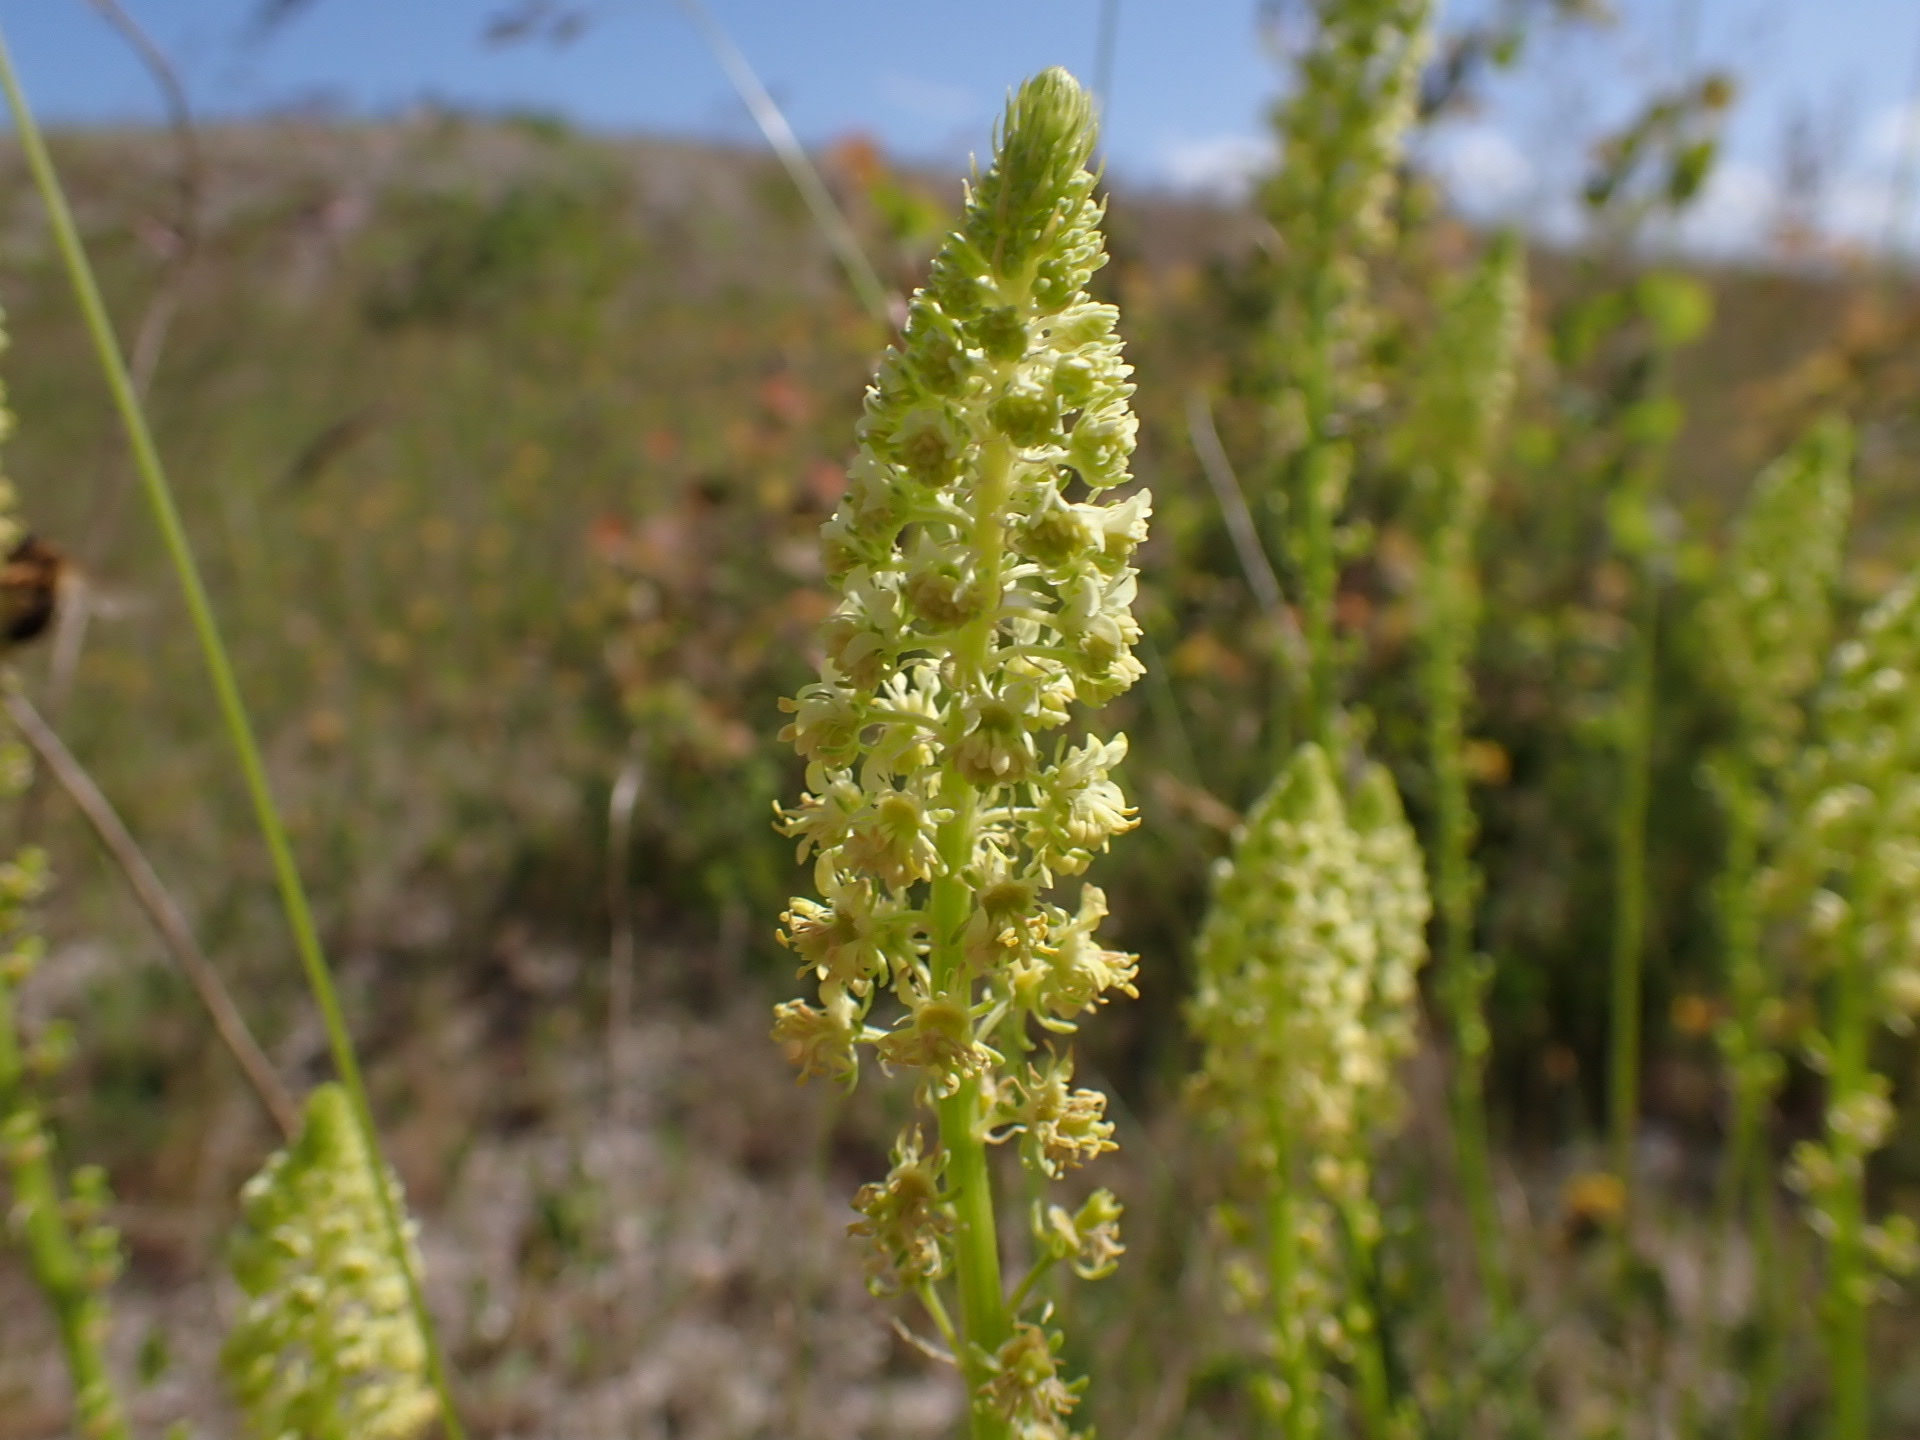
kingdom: Plantae
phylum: Tracheophyta
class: Magnoliopsida
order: Brassicales
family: Resedaceae
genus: Reseda
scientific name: Reseda lutea
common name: Wild mignonette
